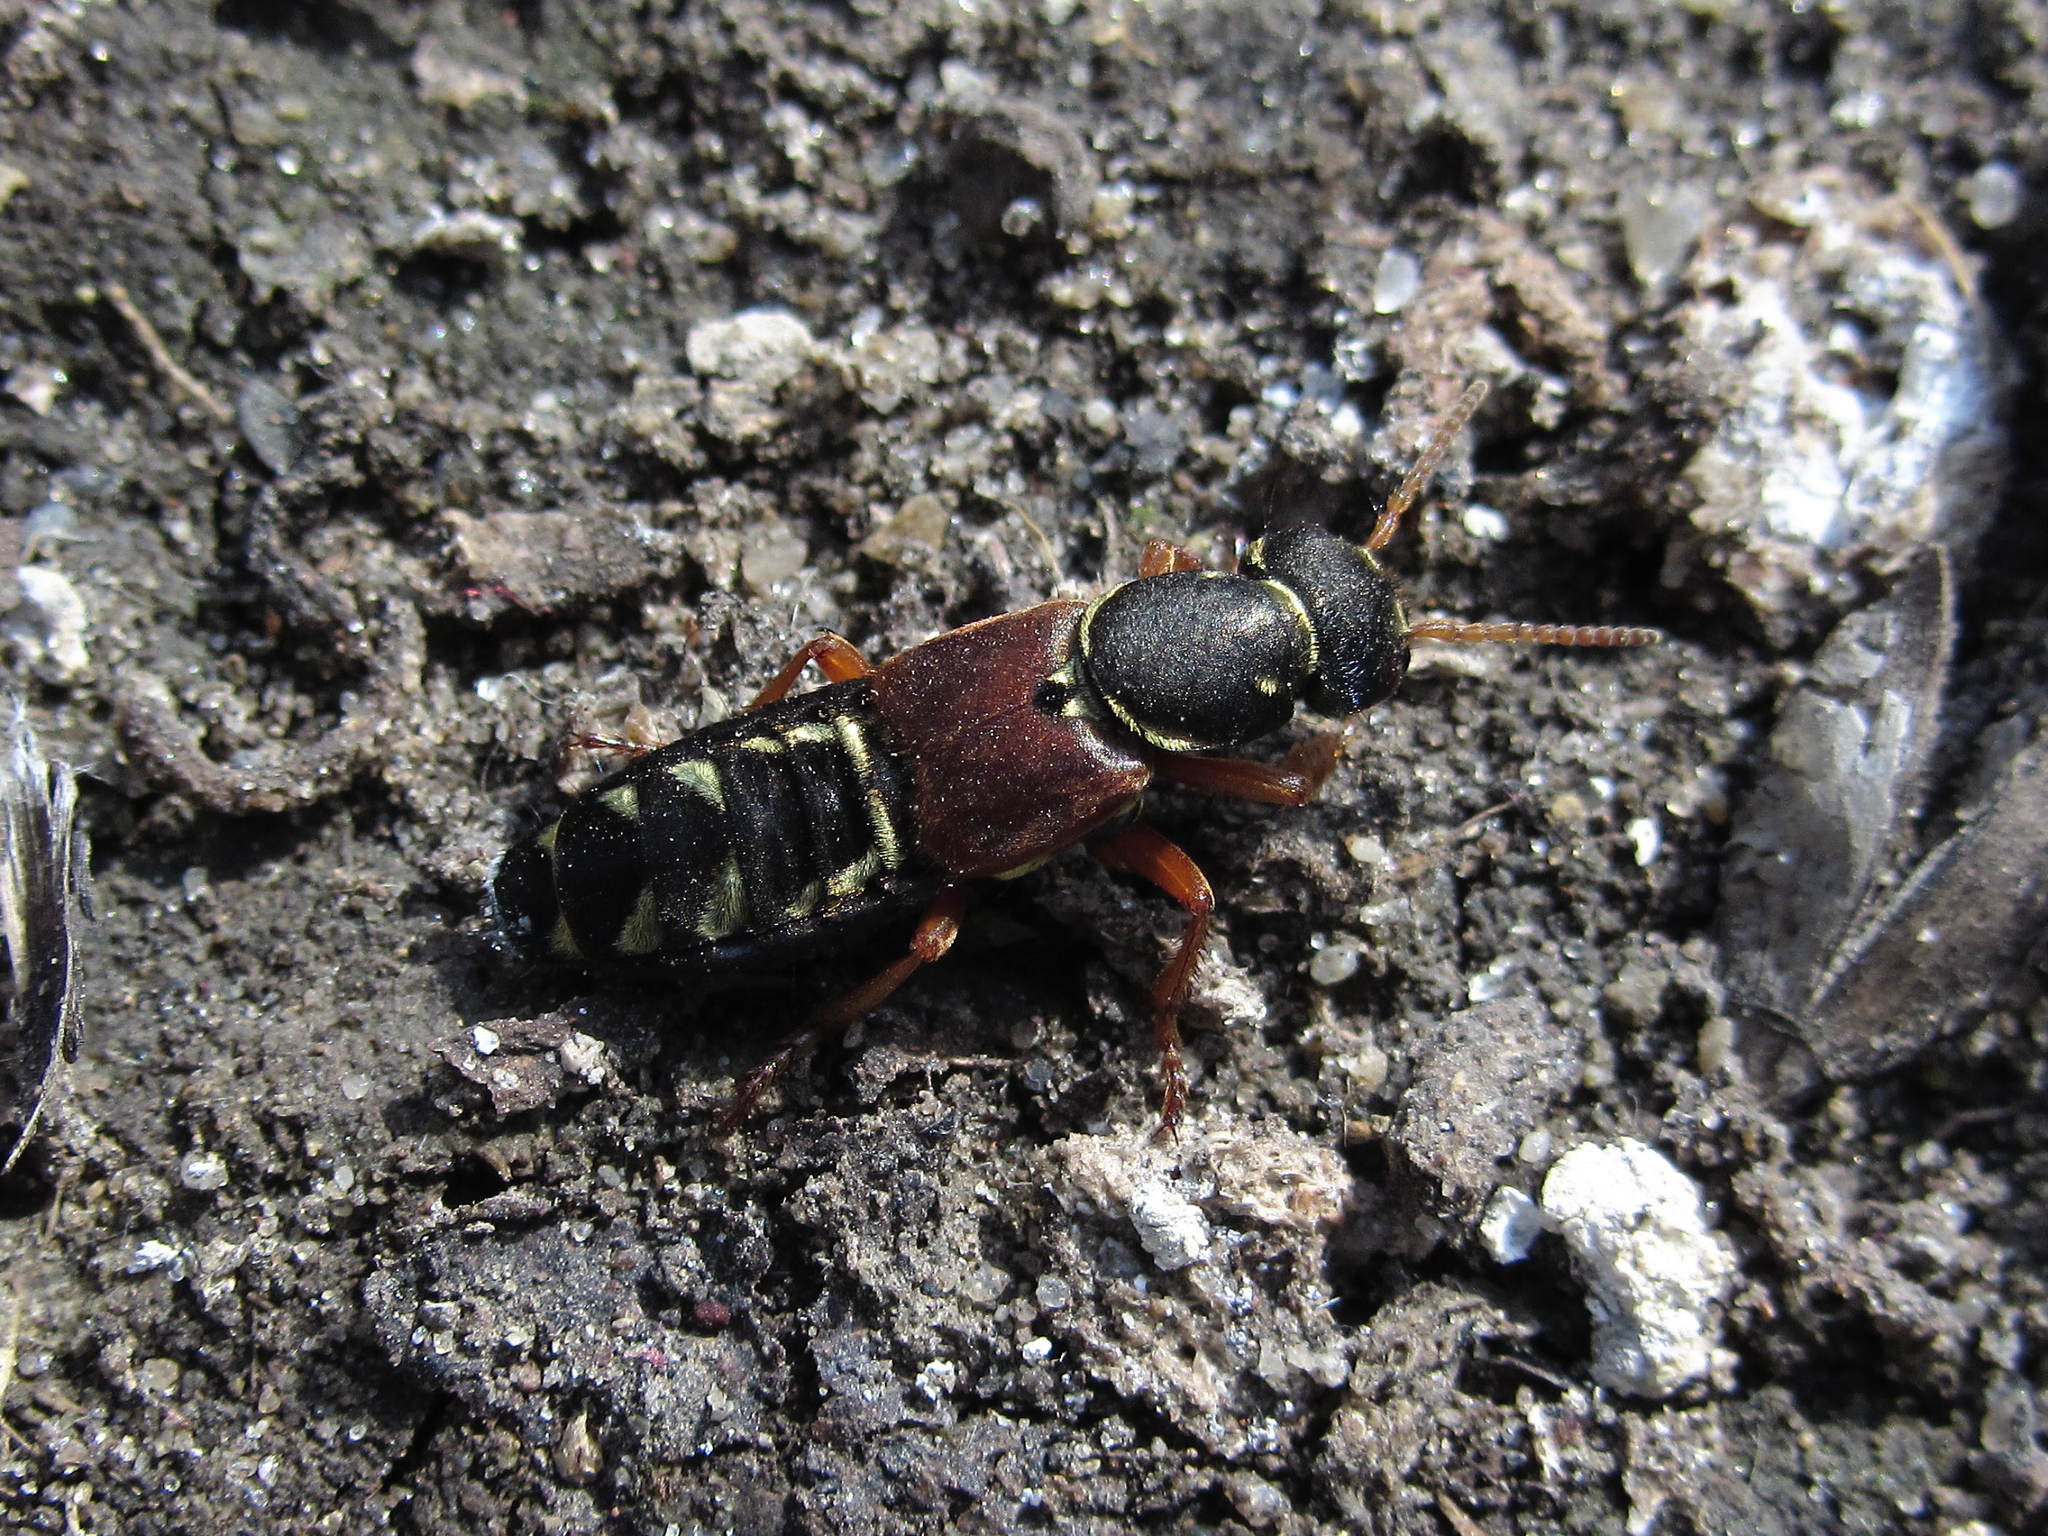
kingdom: Animalia
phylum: Arthropoda
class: Insecta
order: Coleoptera
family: Staphylinidae
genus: Staphylinus
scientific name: Staphylinus caesareus
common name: Staph beetle
